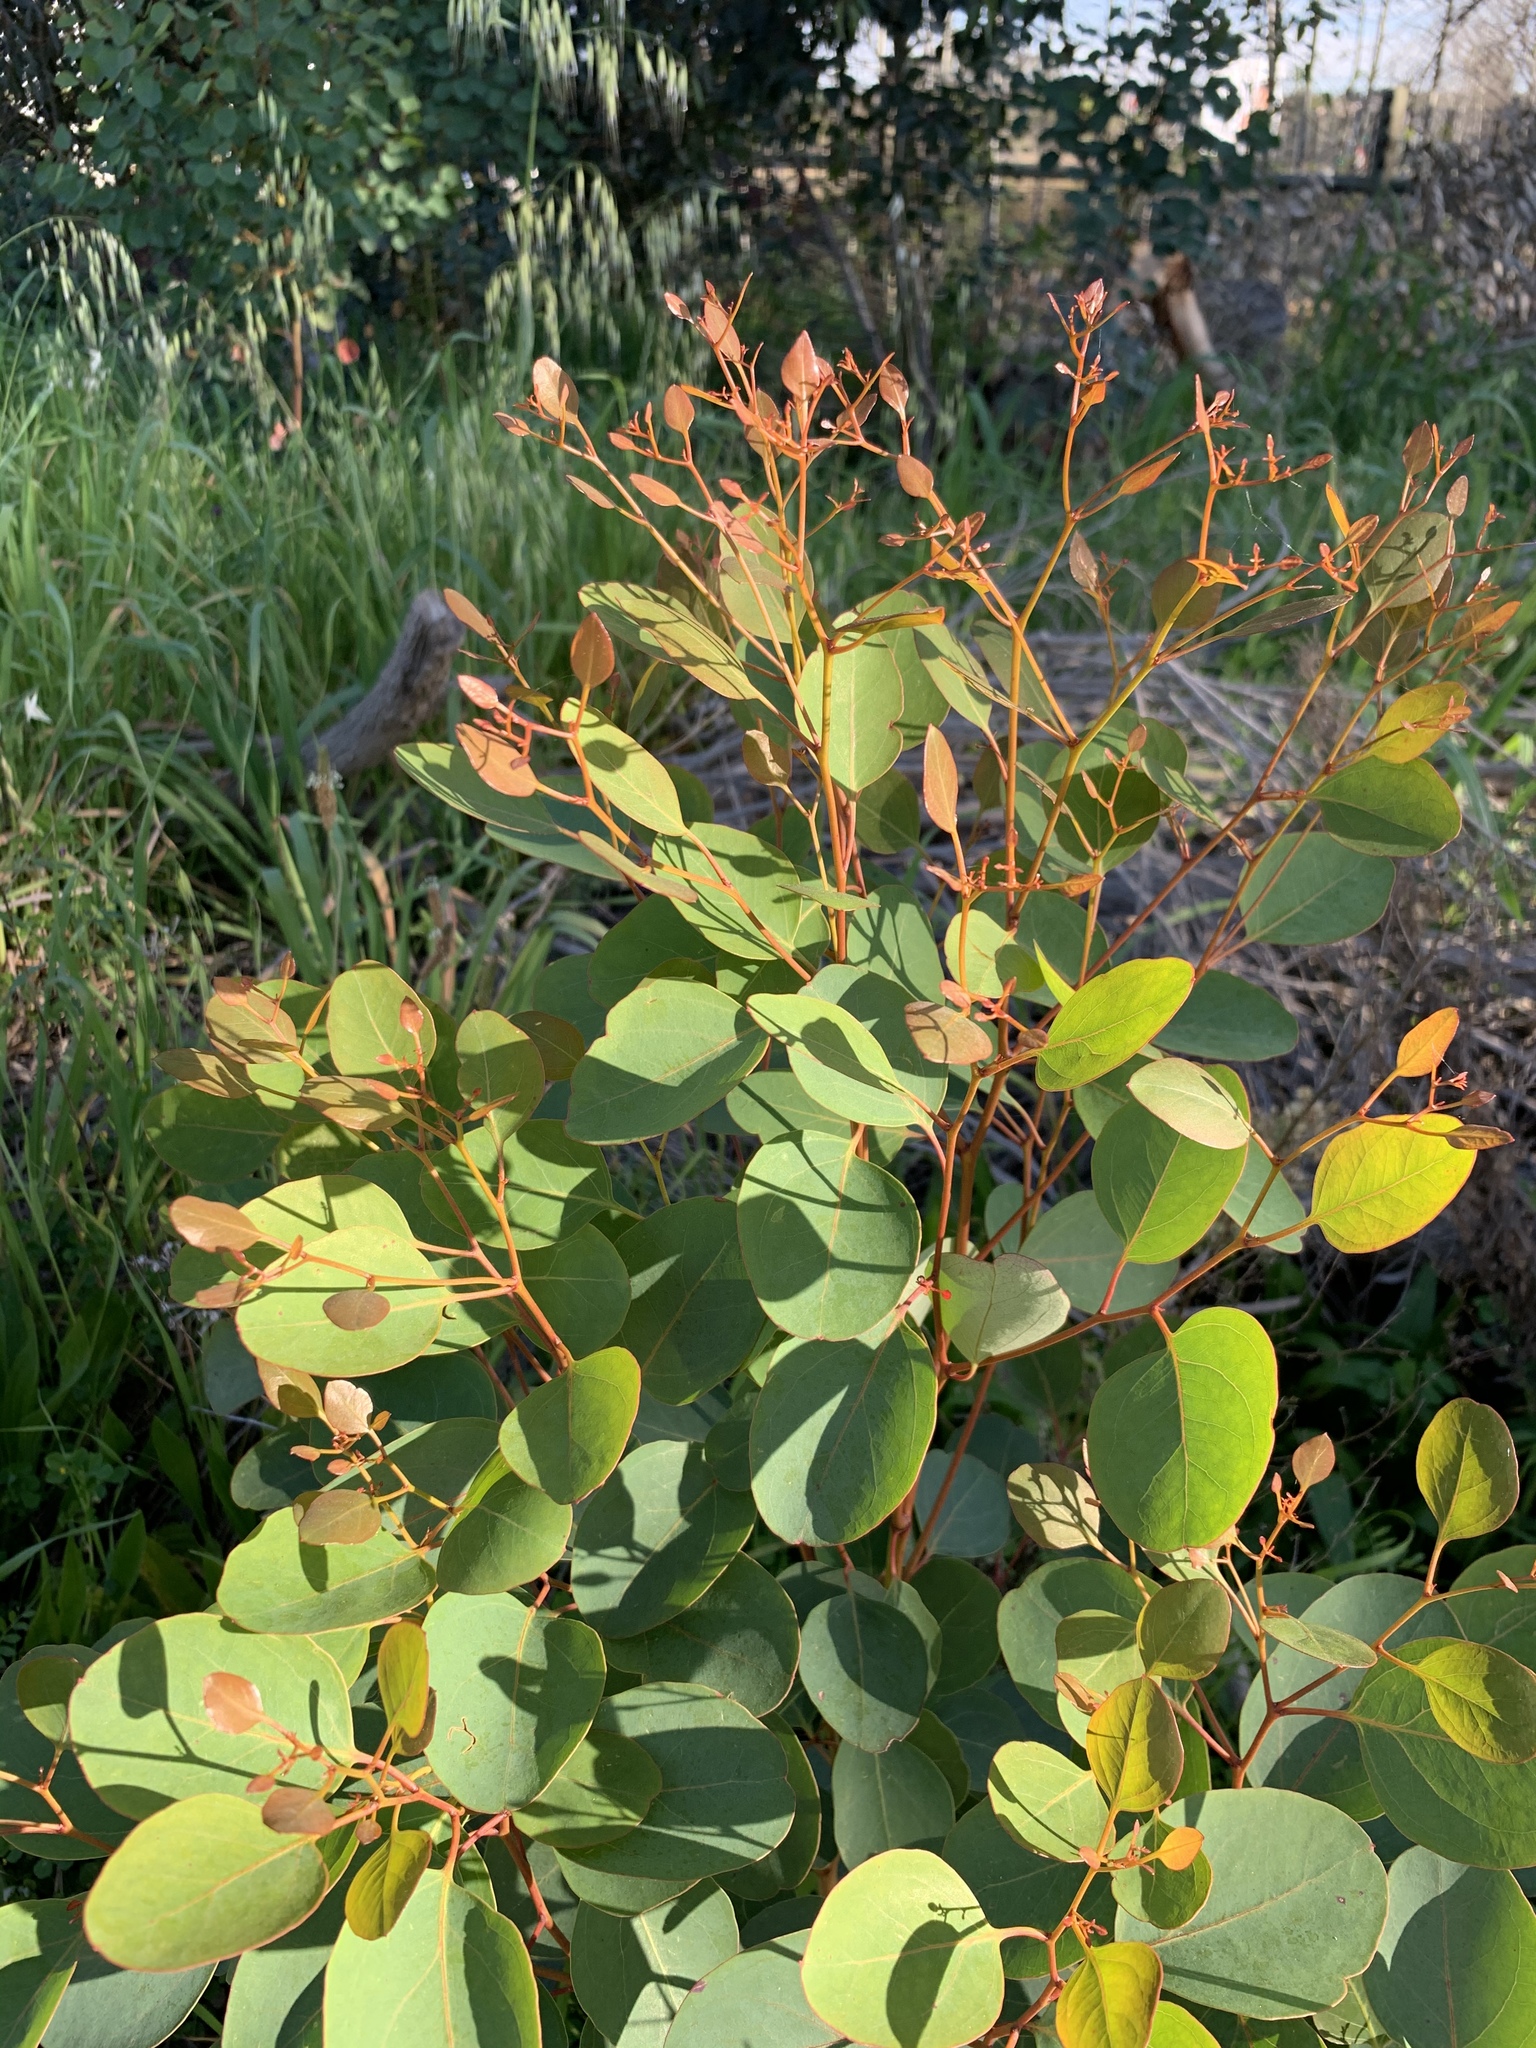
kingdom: Plantae
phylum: Tracheophyta
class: Magnoliopsida
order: Myrtales
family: Myrtaceae
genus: Eucalyptus
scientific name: Eucalyptus cladocalyx
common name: Sugargum
